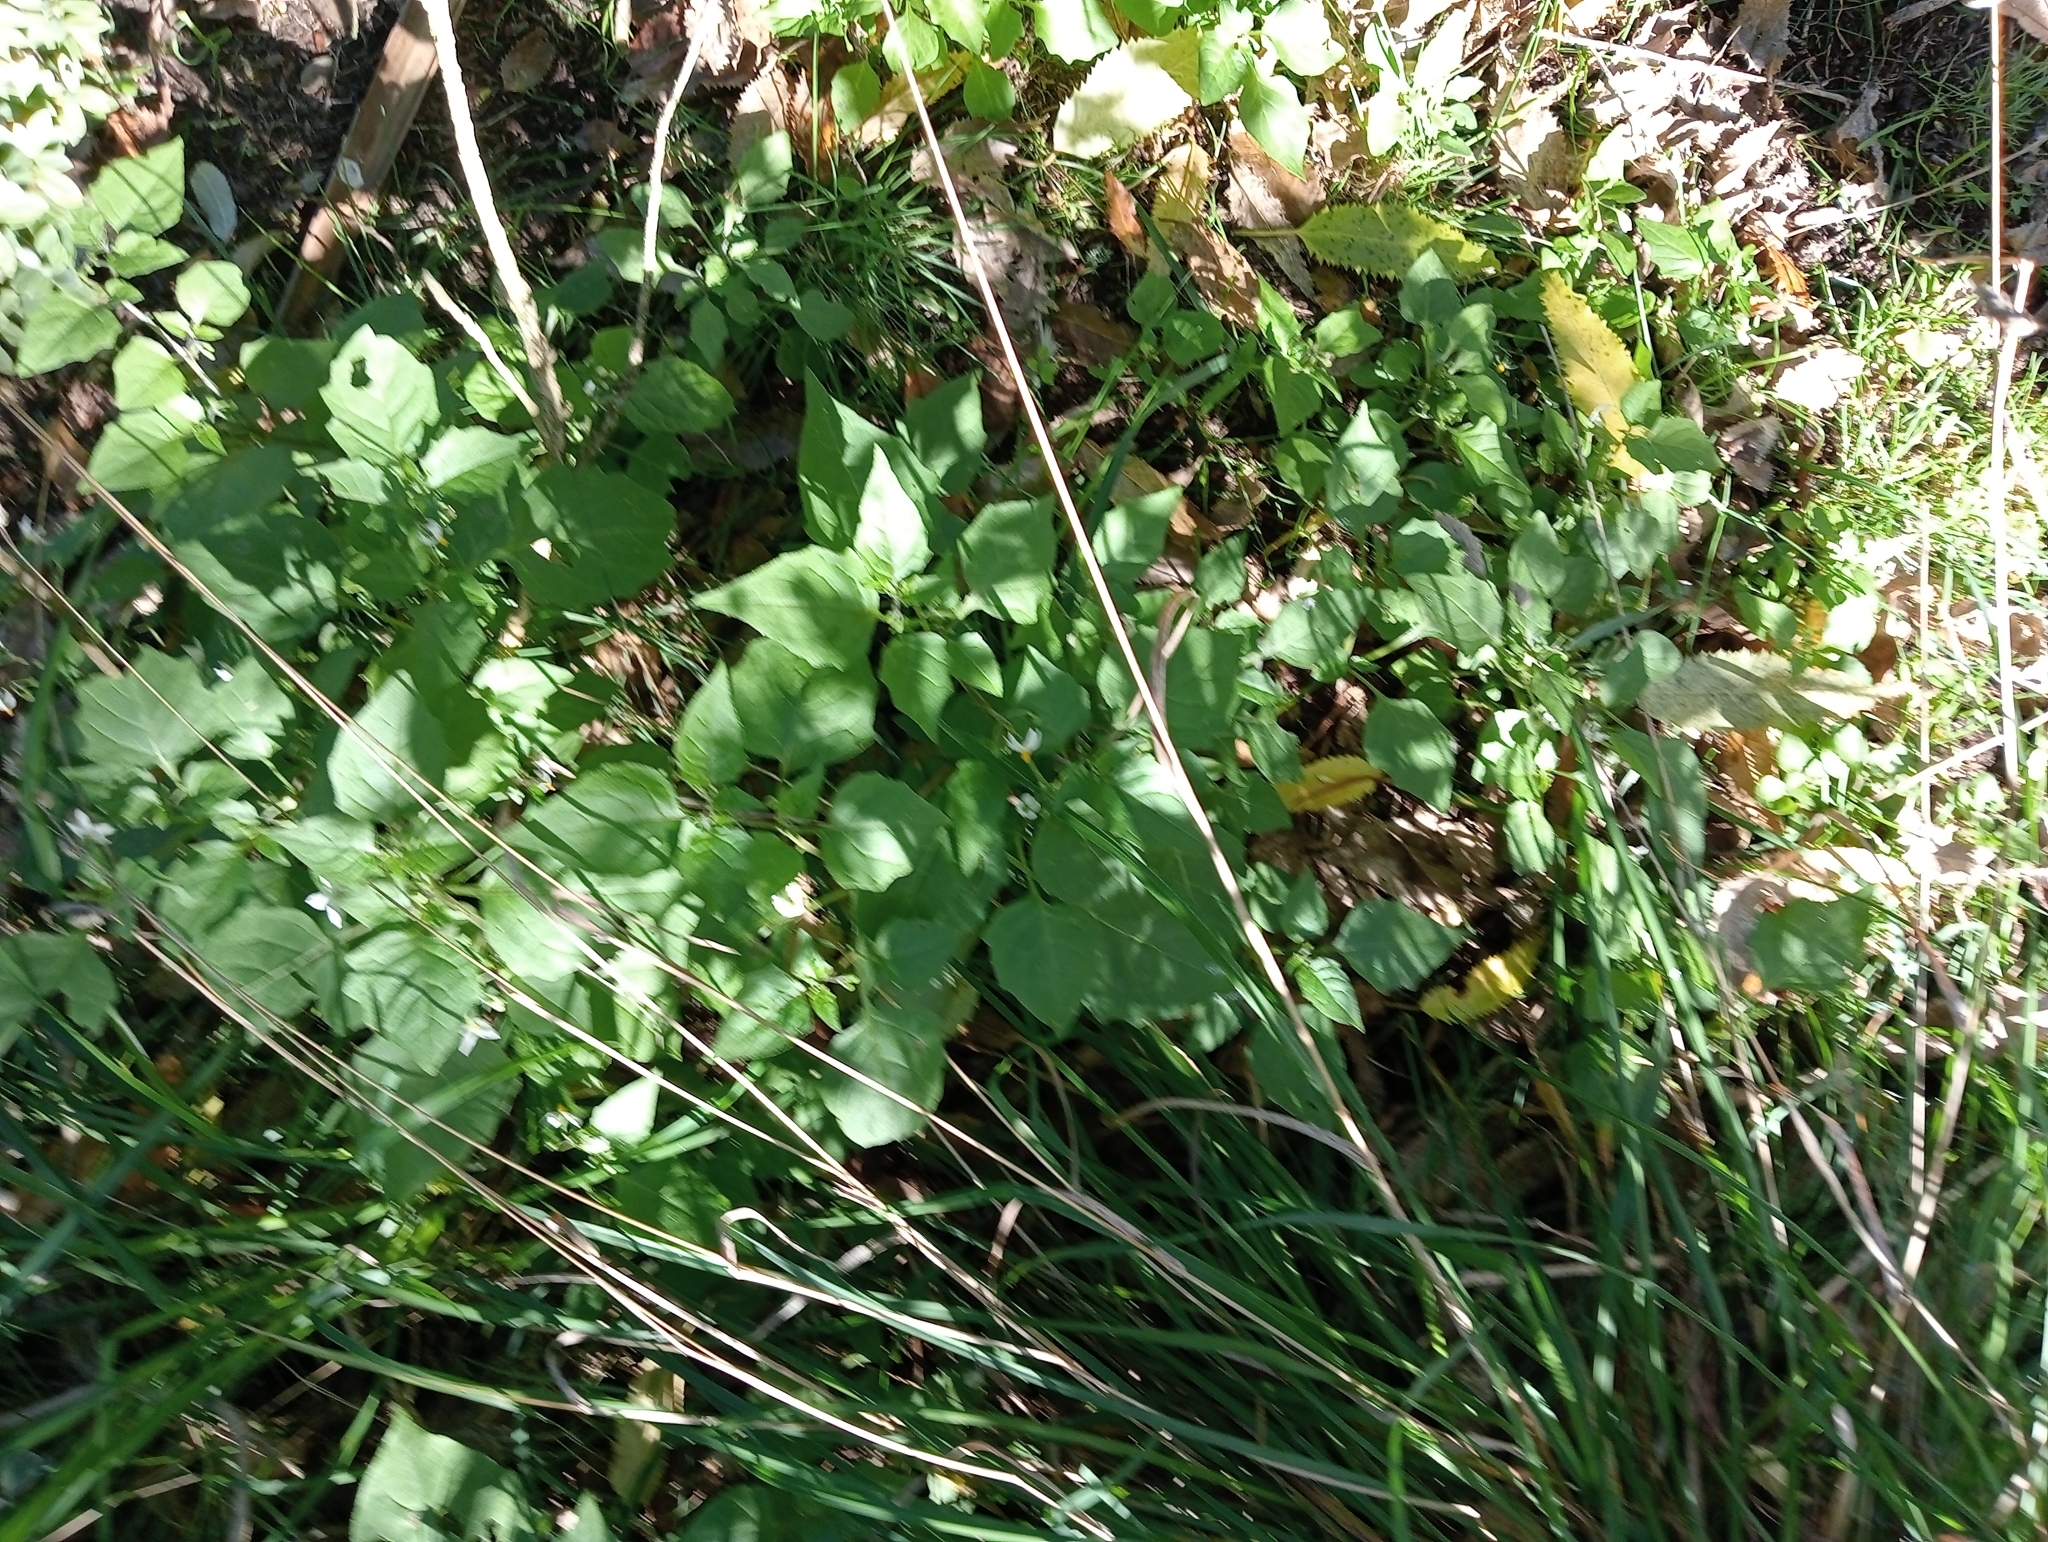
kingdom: Plantae
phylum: Tracheophyta
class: Magnoliopsida
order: Solanales
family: Solanaceae
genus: Solanum
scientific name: Solanum nigrum
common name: Black nightshade
